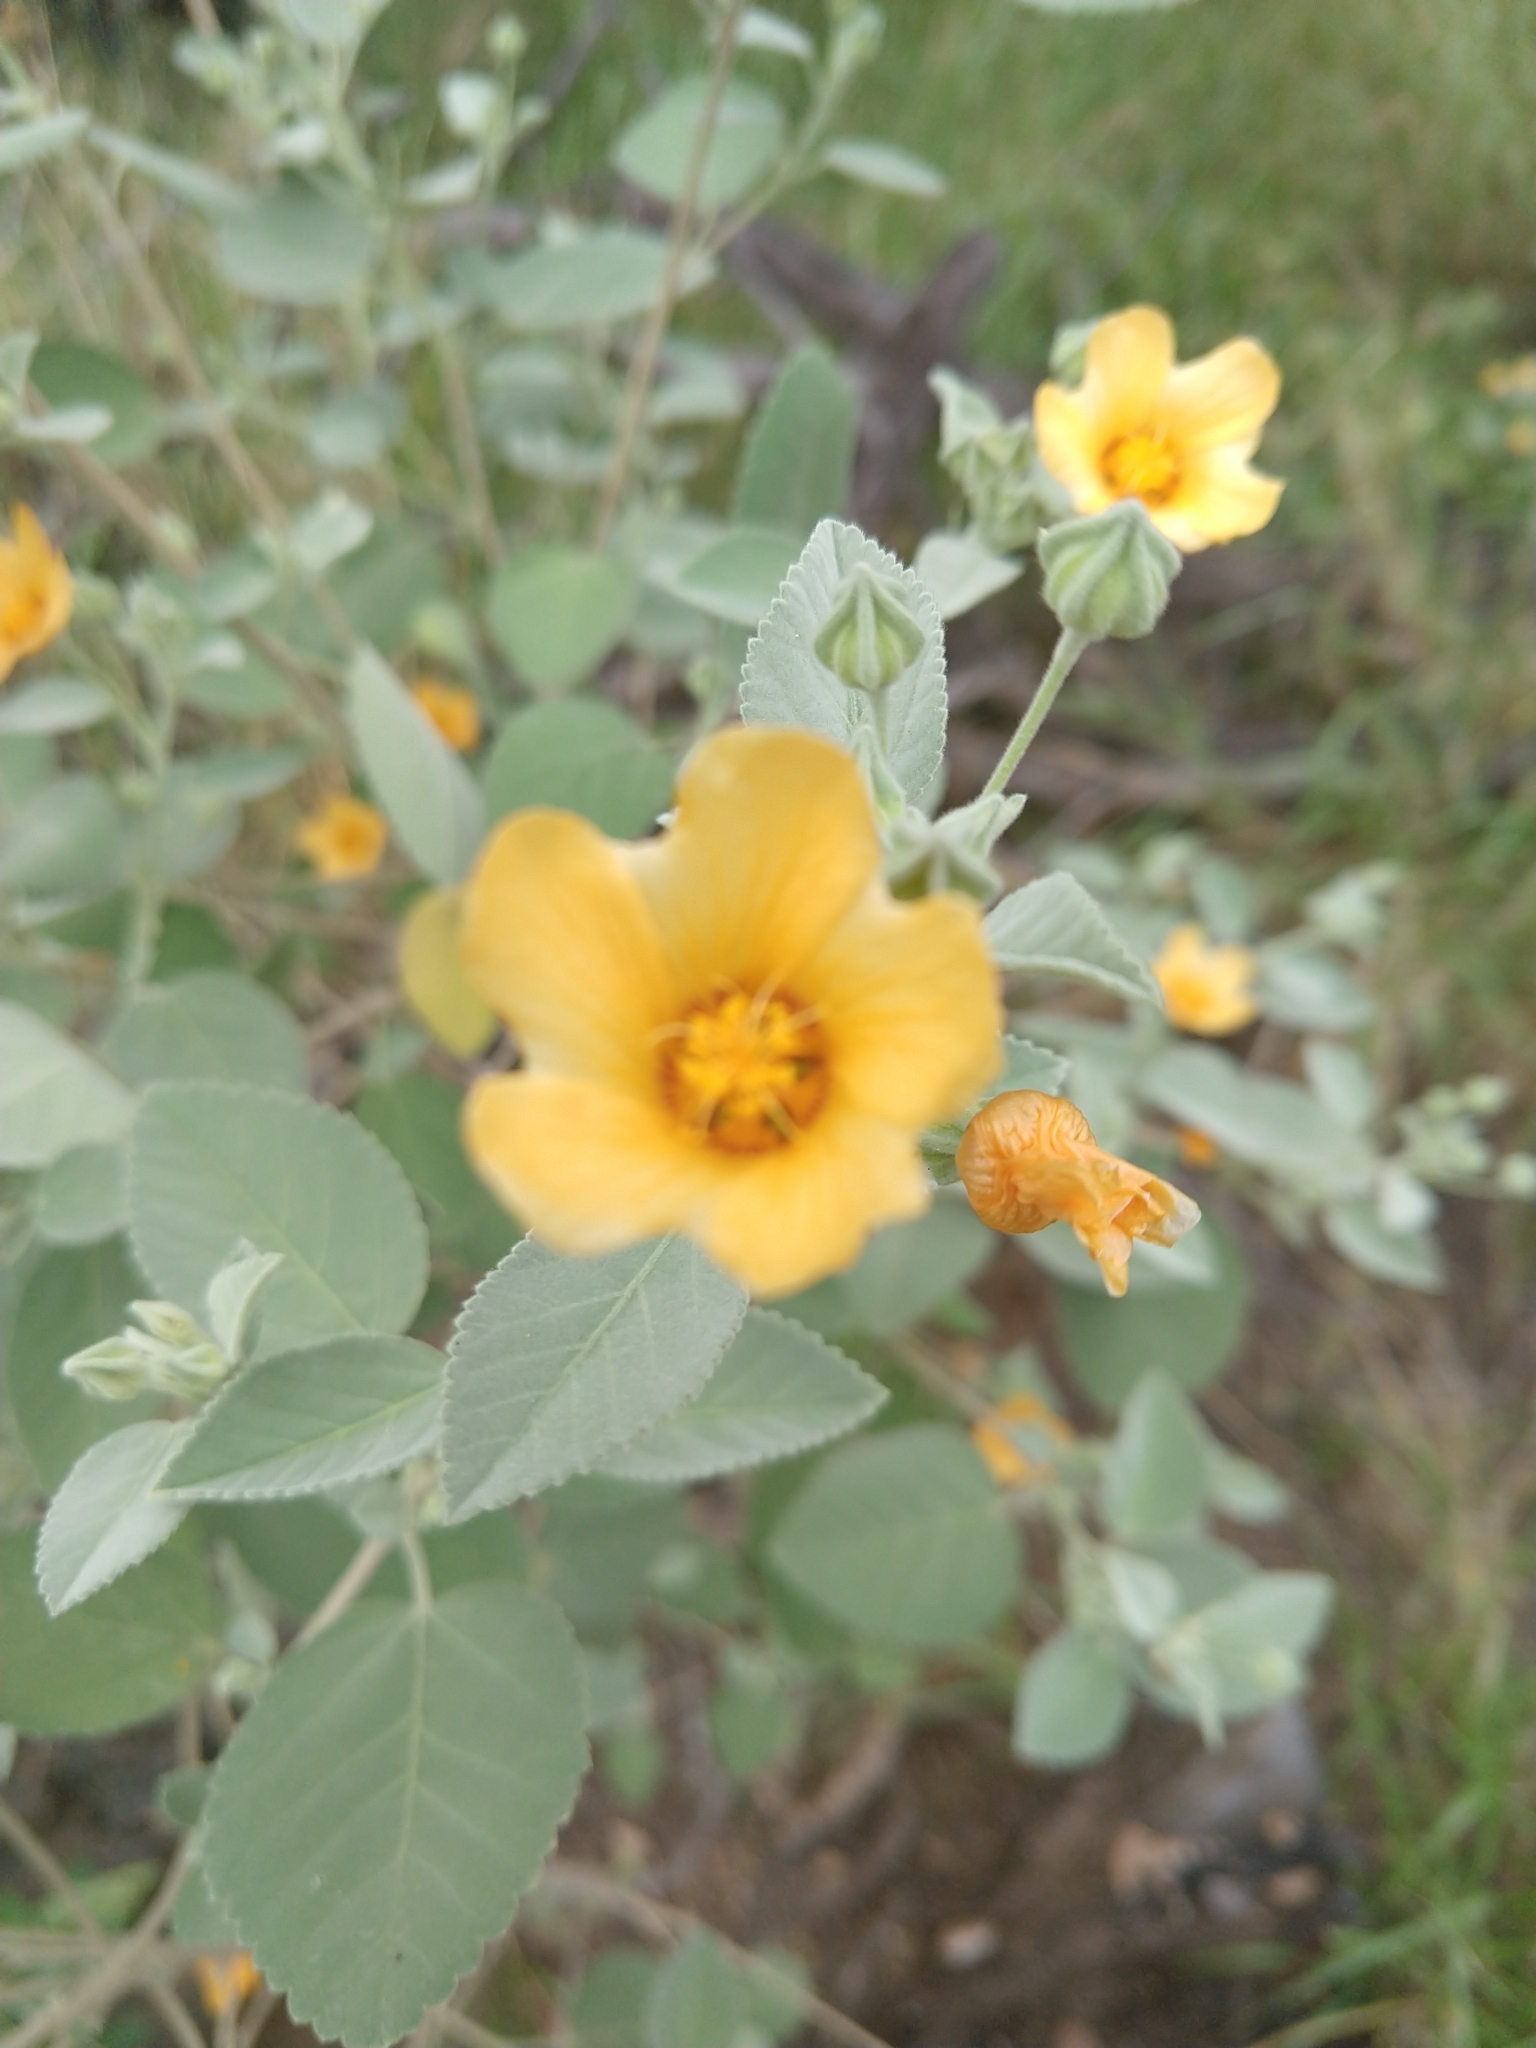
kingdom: Plantae
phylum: Tracheophyta
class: Magnoliopsida
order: Malvales
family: Malvaceae
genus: Sida
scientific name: Sida fallax
